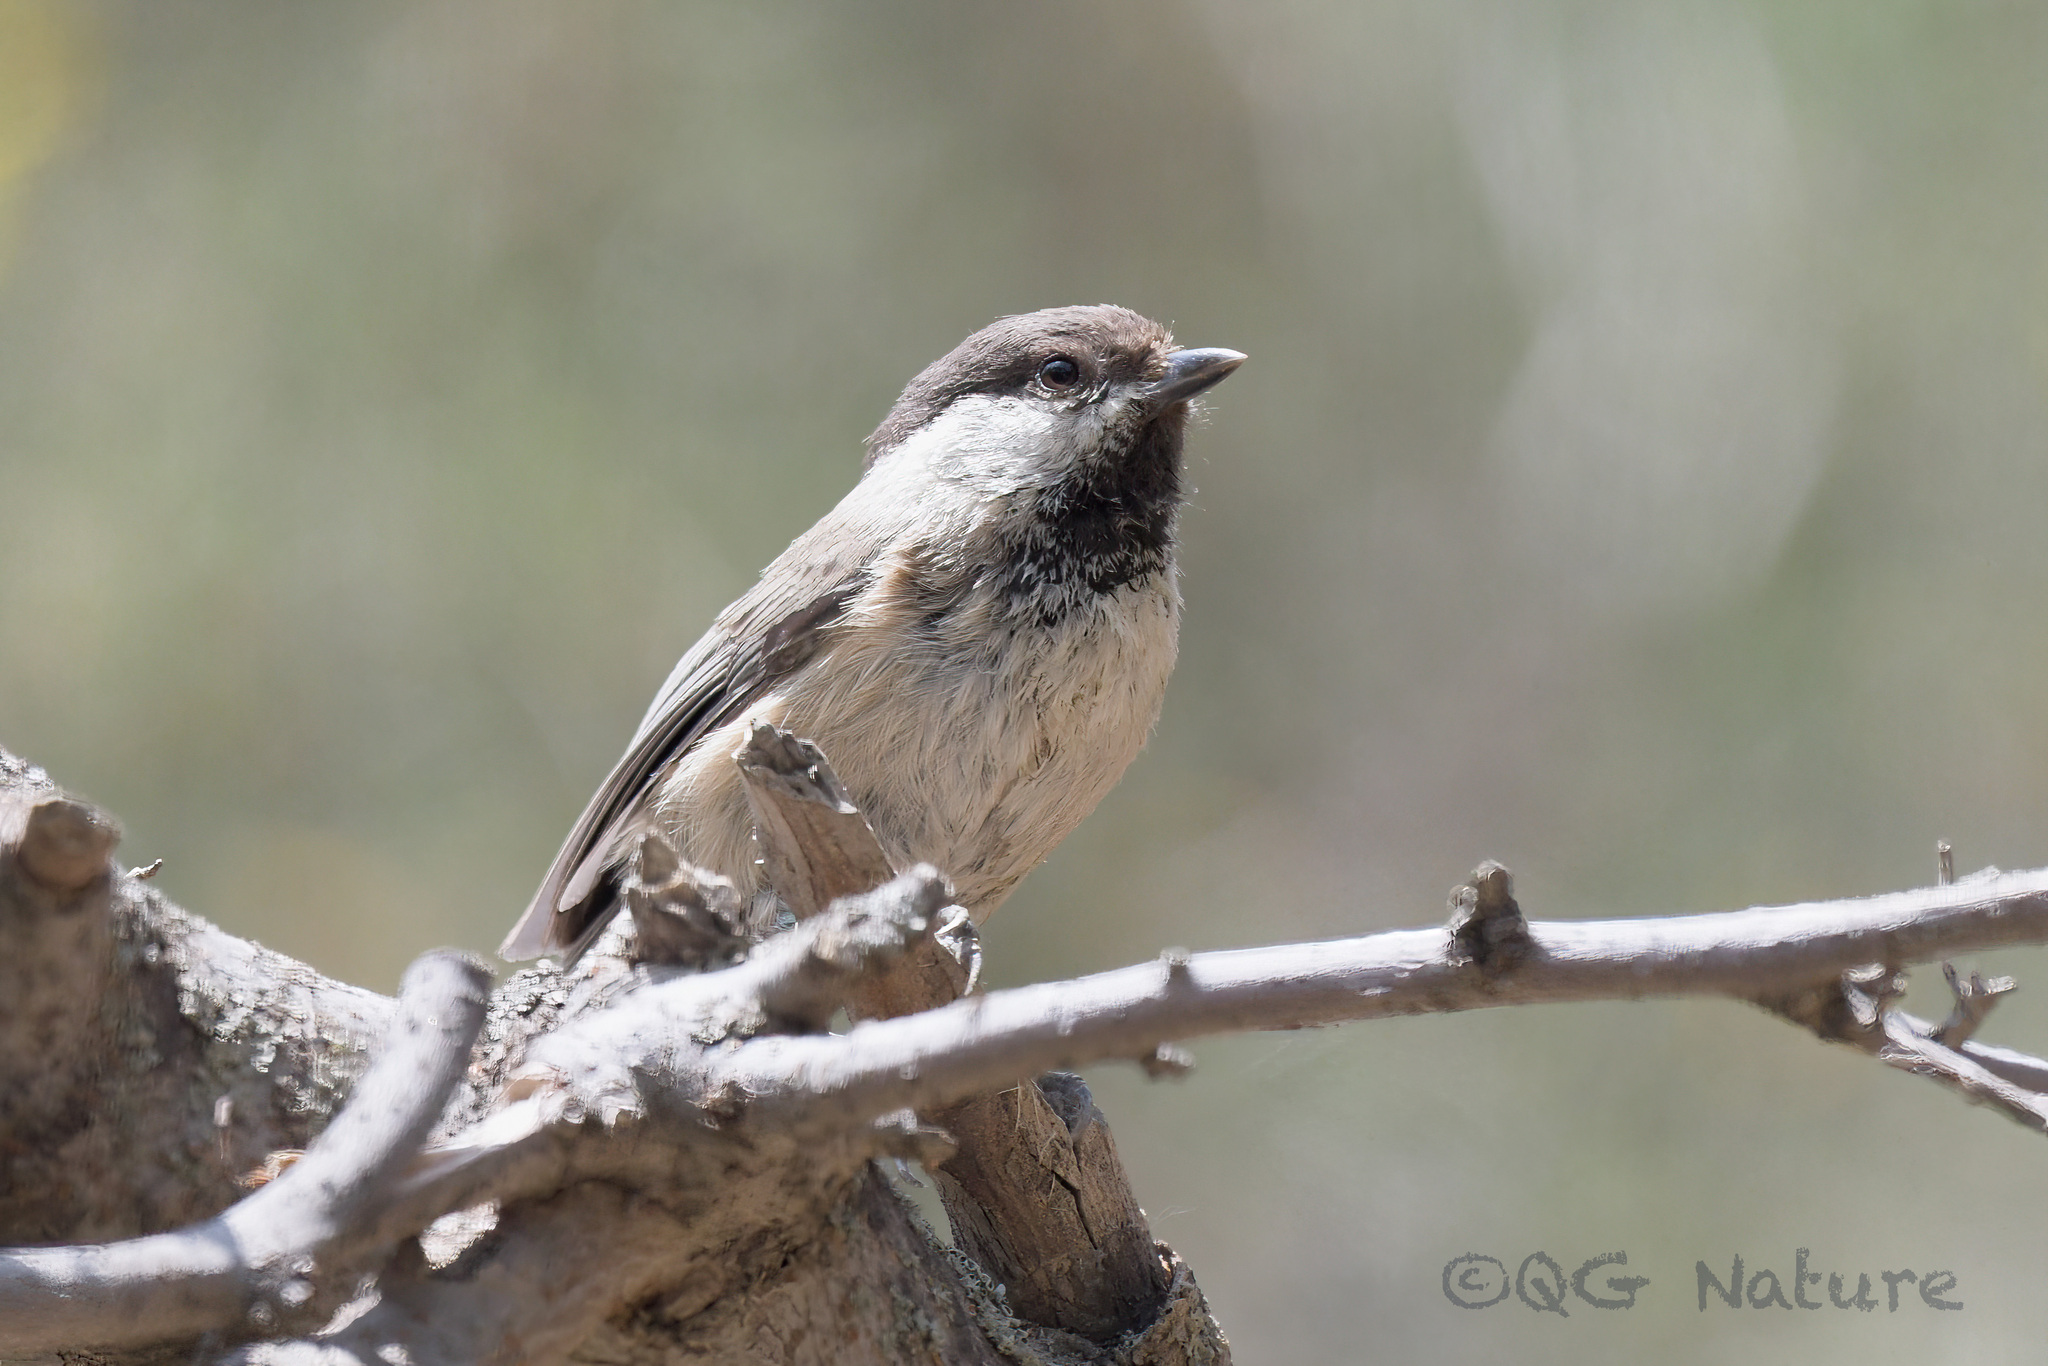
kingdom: Animalia
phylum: Chordata
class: Aves
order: Passeriformes
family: Paridae
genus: Poecile
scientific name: Poecile montanus
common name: Willow tit
